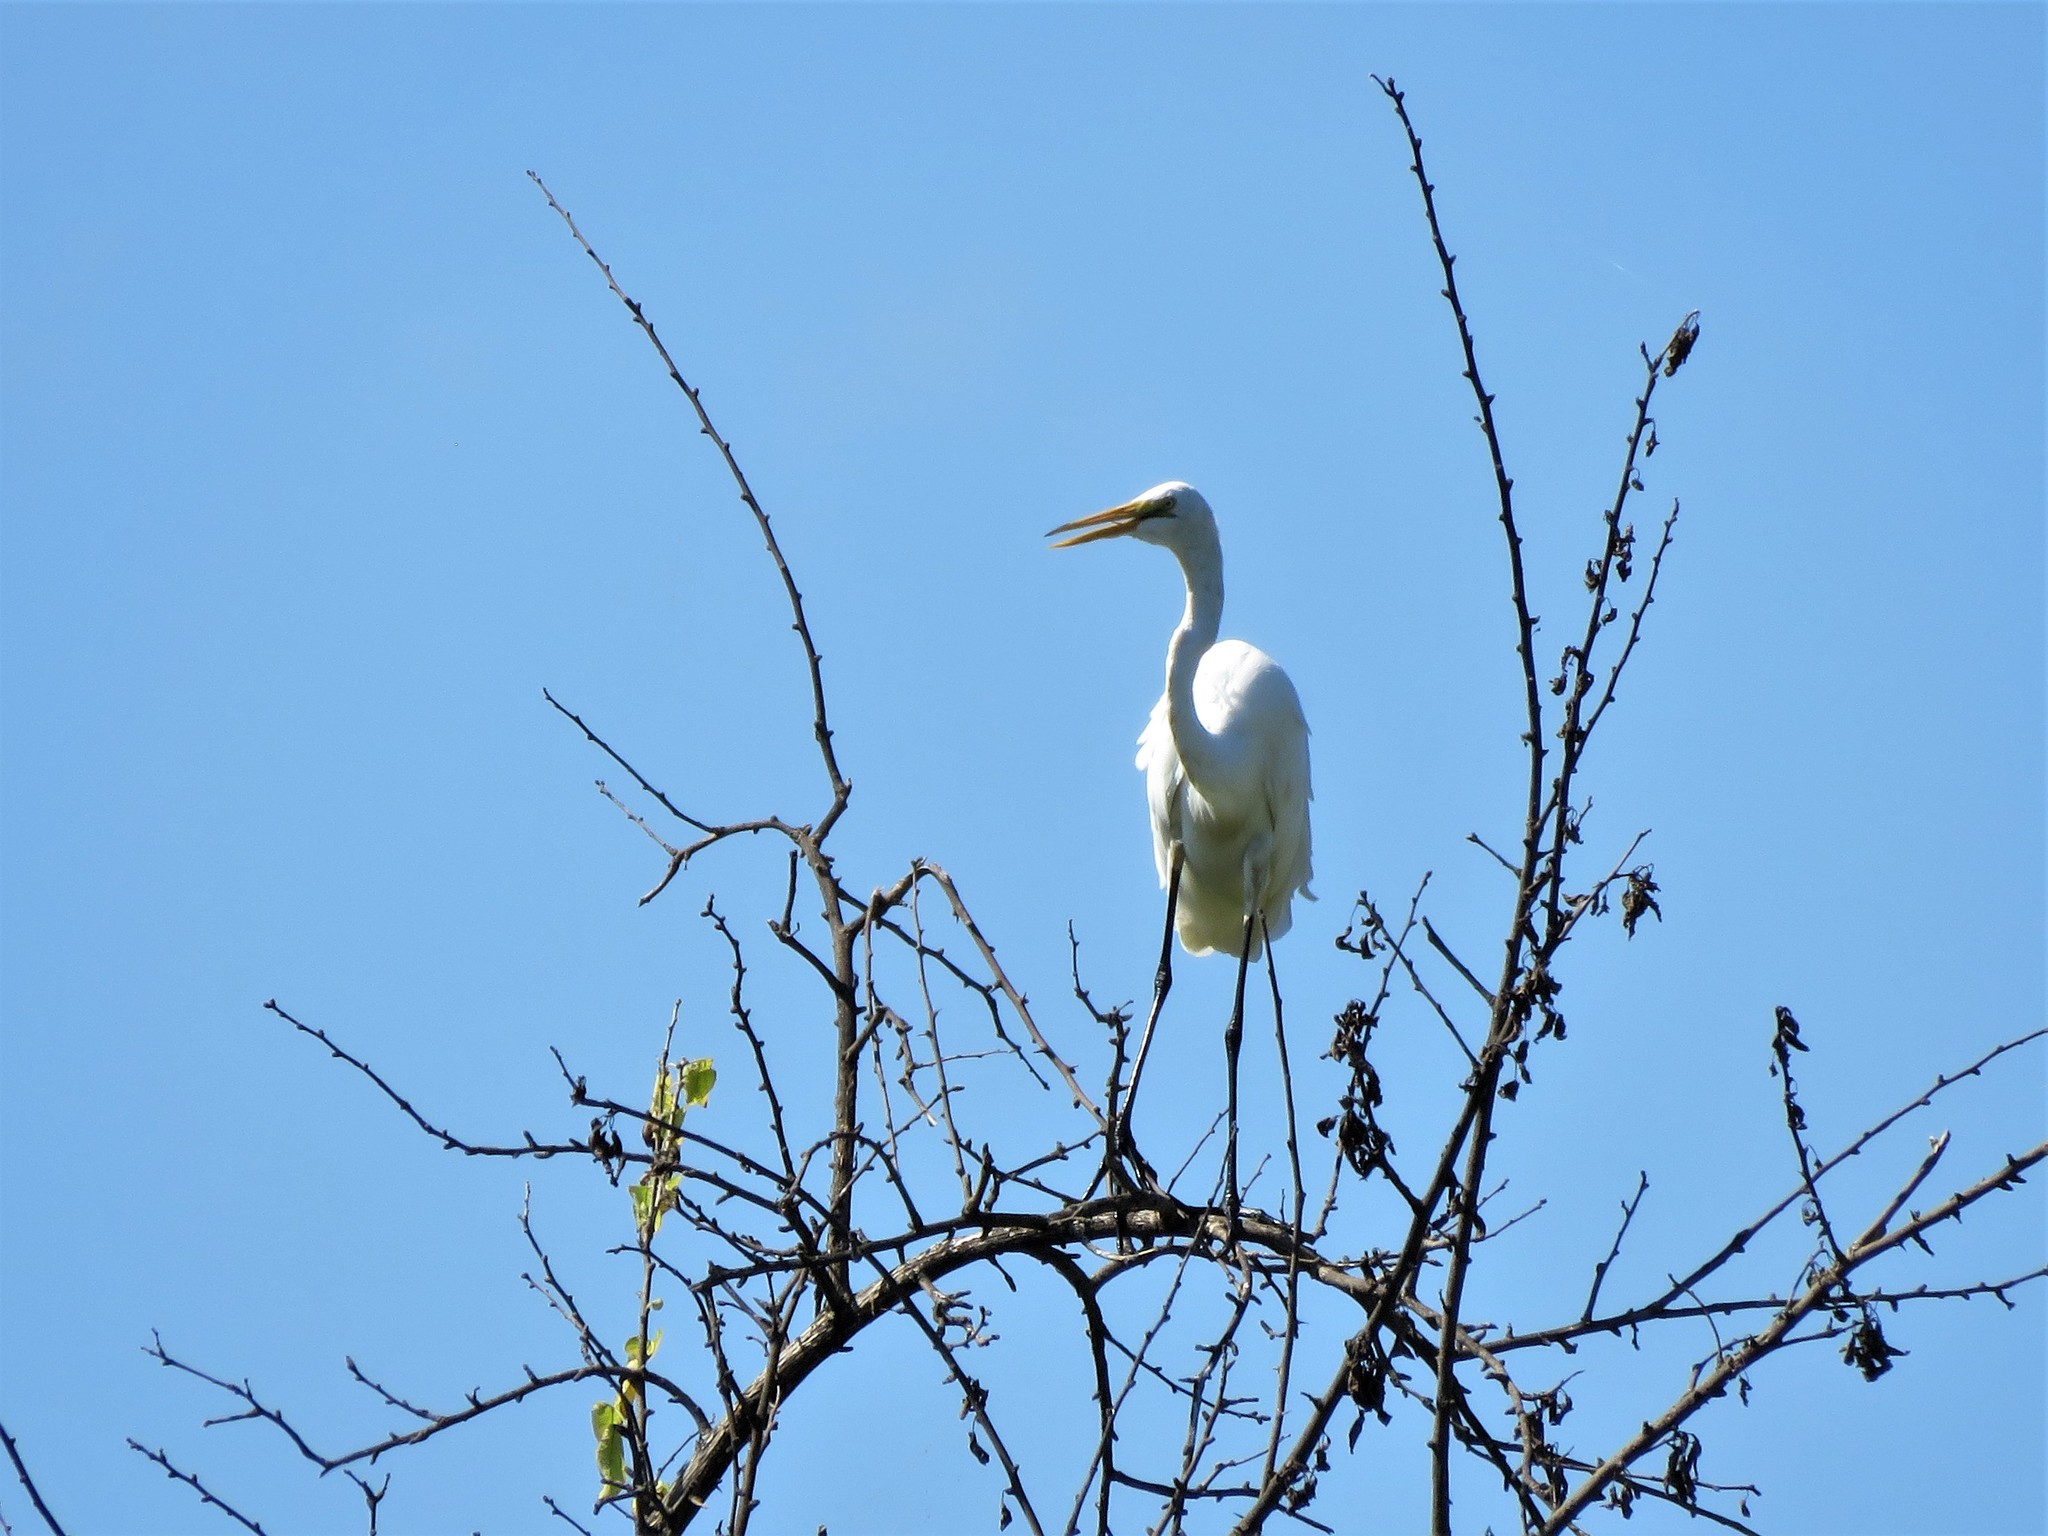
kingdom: Animalia
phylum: Chordata
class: Aves
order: Pelecaniformes
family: Ardeidae
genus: Ardea
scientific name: Ardea alba
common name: Great egret
